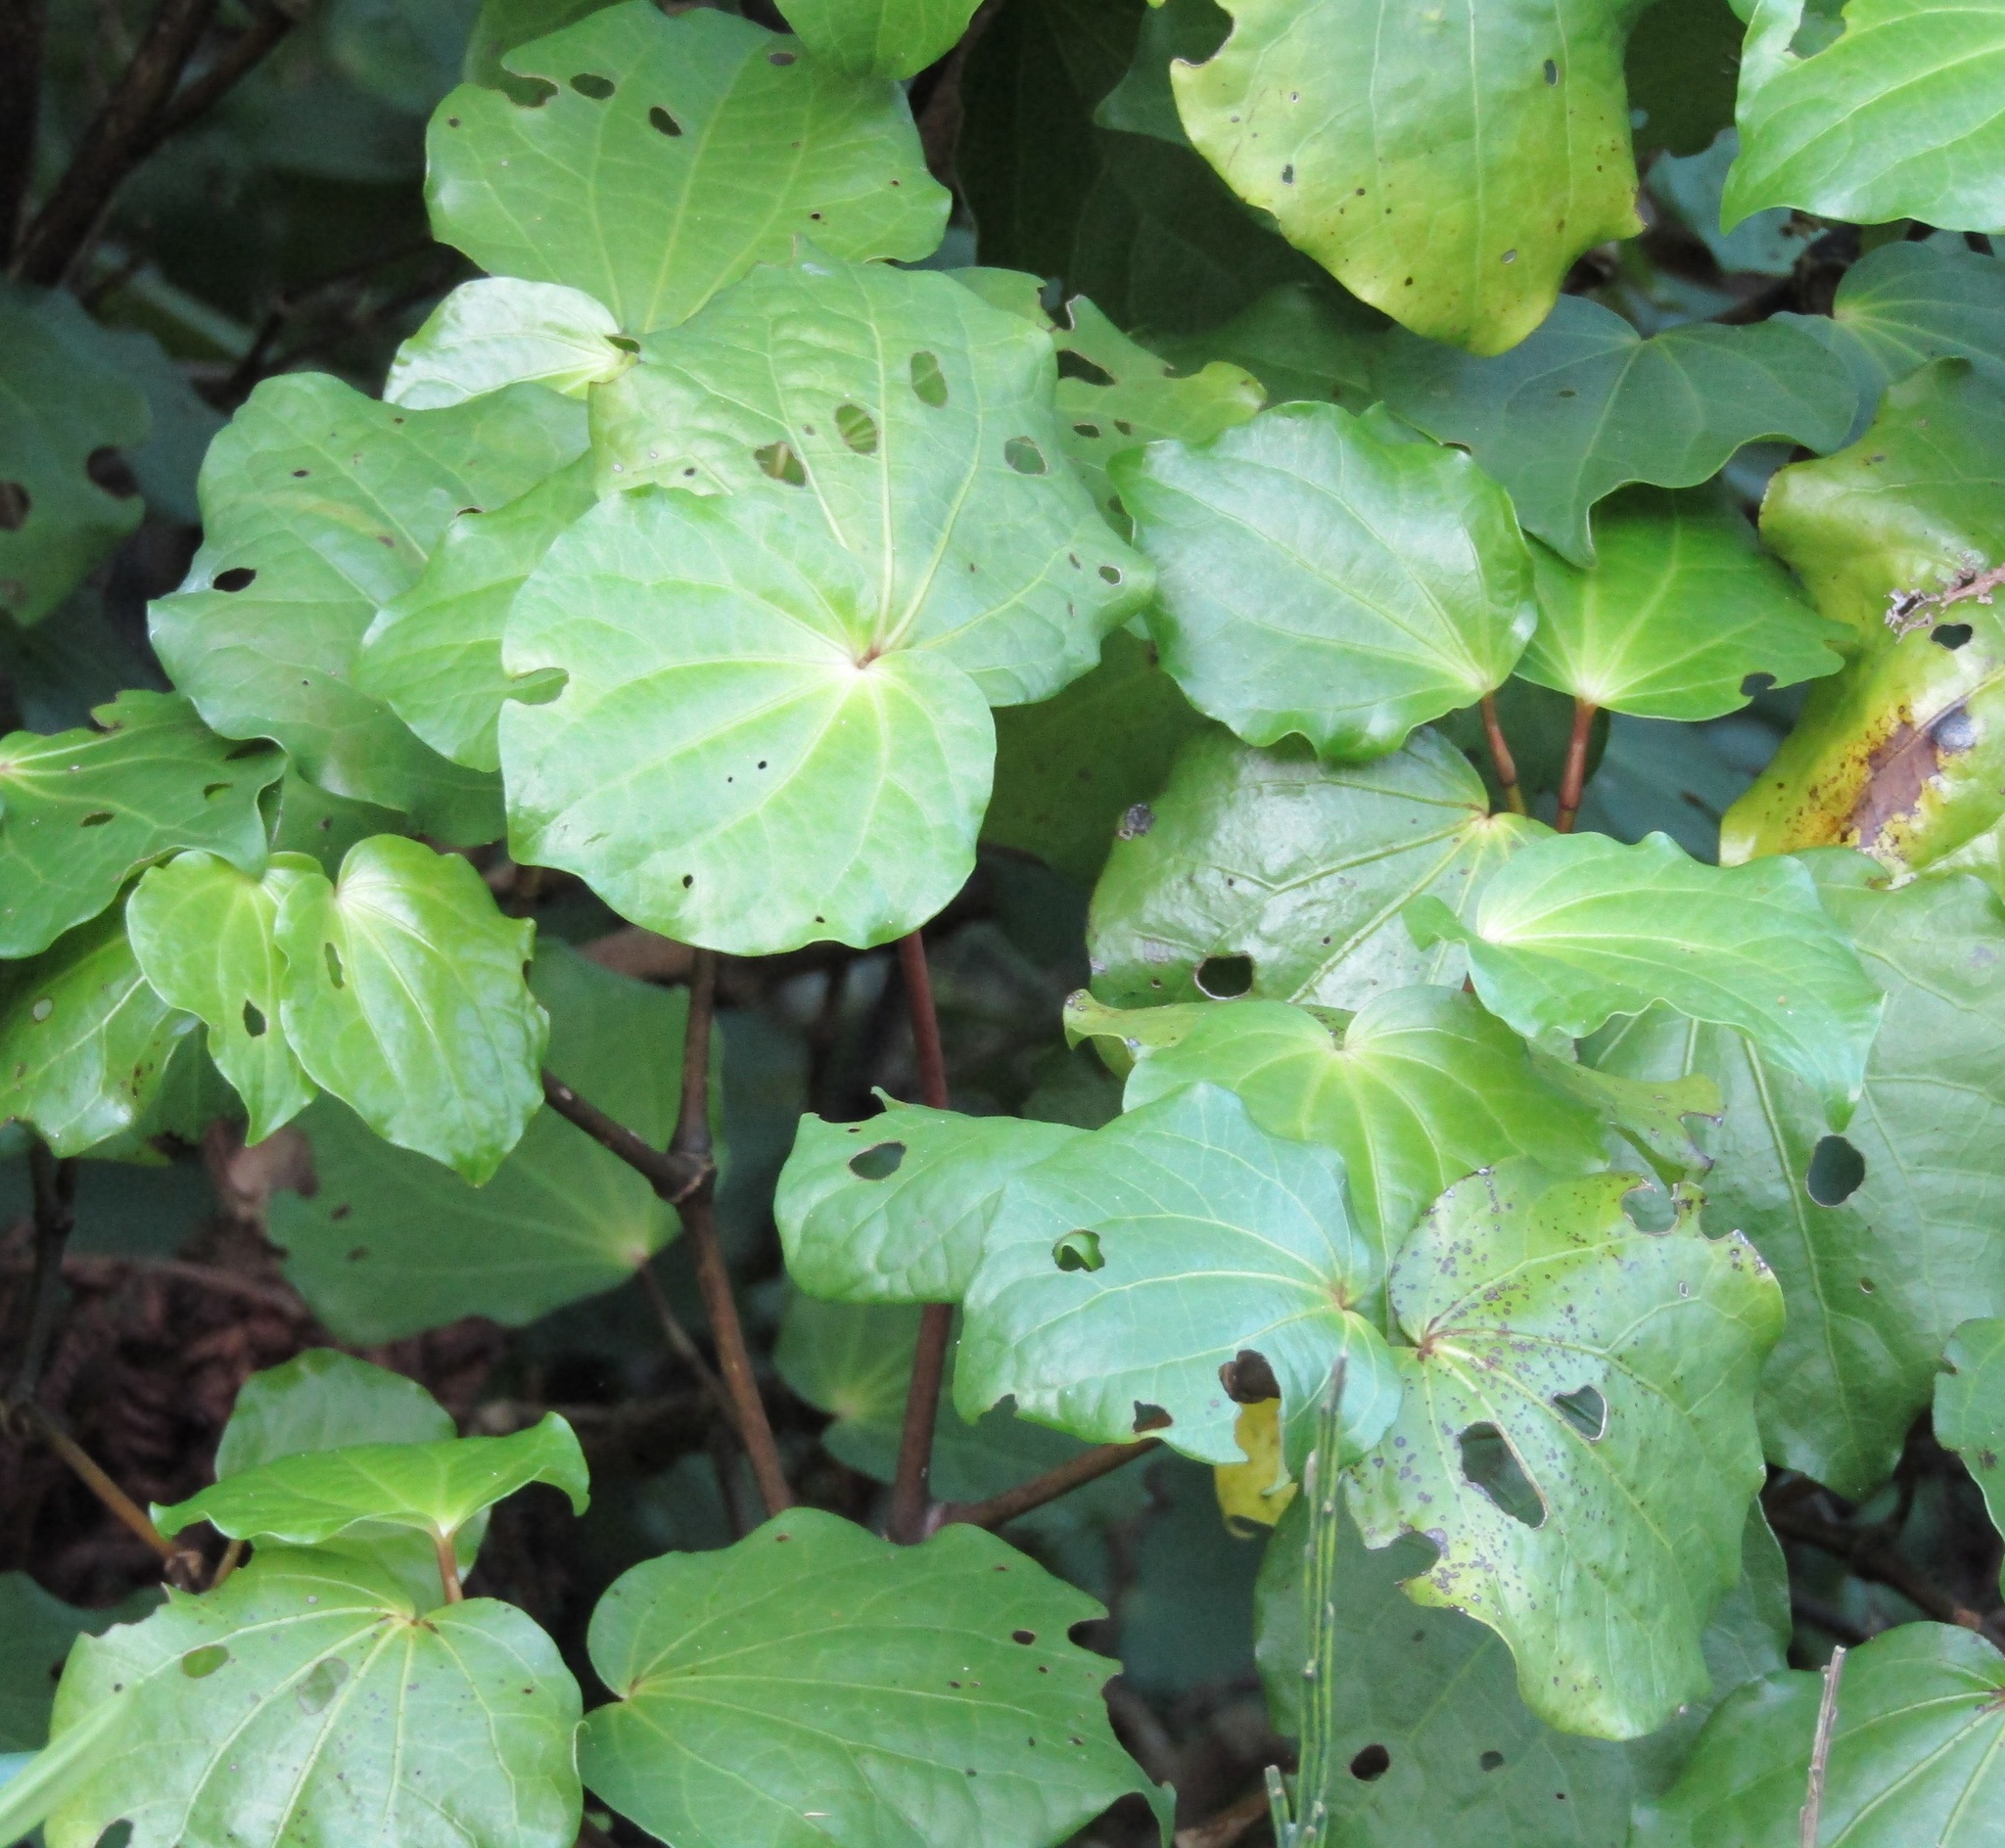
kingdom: Plantae
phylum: Tracheophyta
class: Magnoliopsida
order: Piperales
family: Piperaceae
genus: Macropiper
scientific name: Macropiper excelsum
